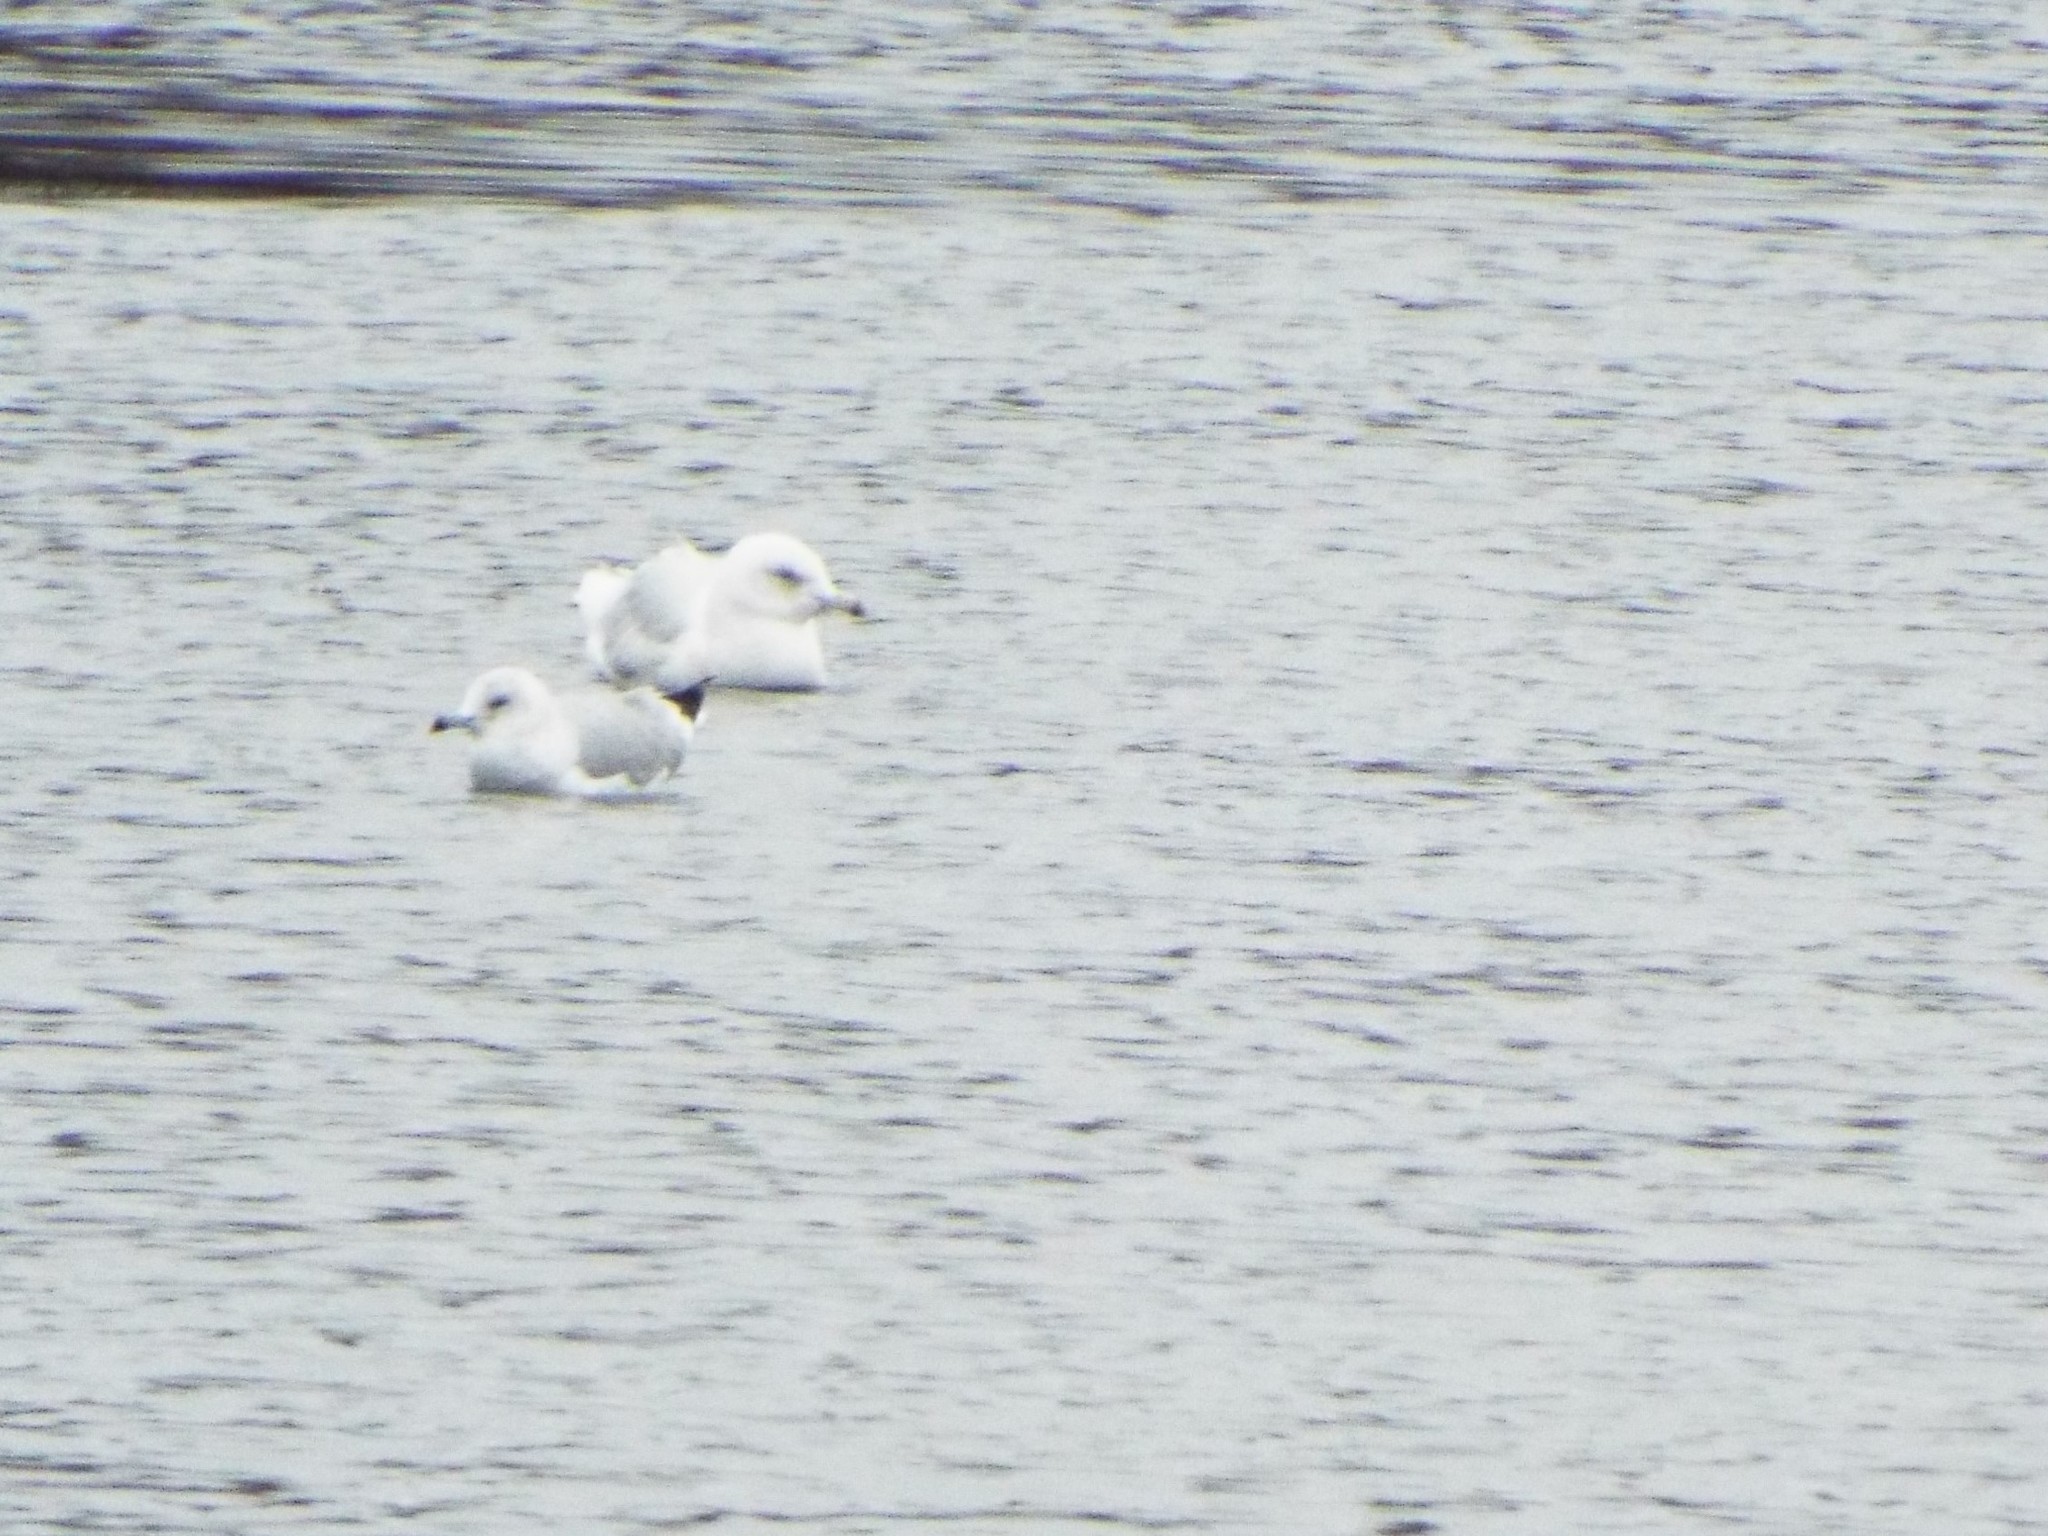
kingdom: Animalia
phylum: Chordata
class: Aves
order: Charadriiformes
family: Laridae
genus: Larus
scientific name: Larus hyperboreus
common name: Glaucous gull
